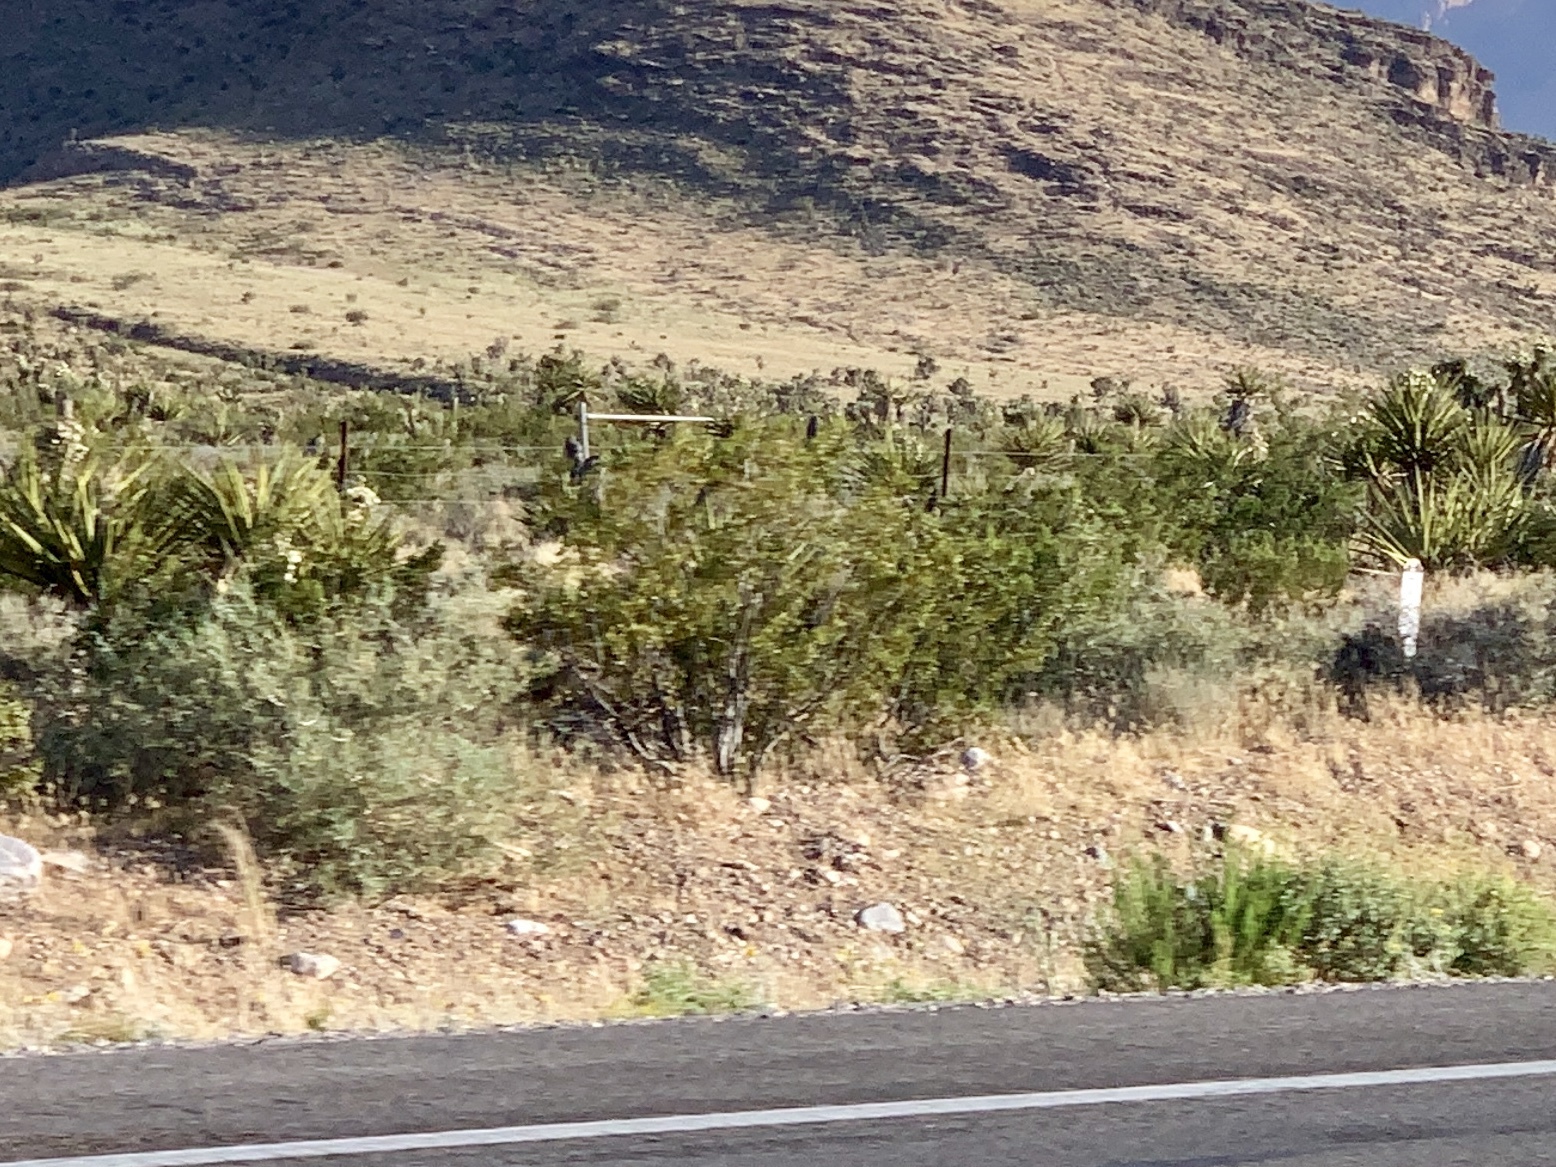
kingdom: Plantae
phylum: Tracheophyta
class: Magnoliopsida
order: Zygophyllales
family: Zygophyllaceae
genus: Larrea
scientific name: Larrea tridentata
